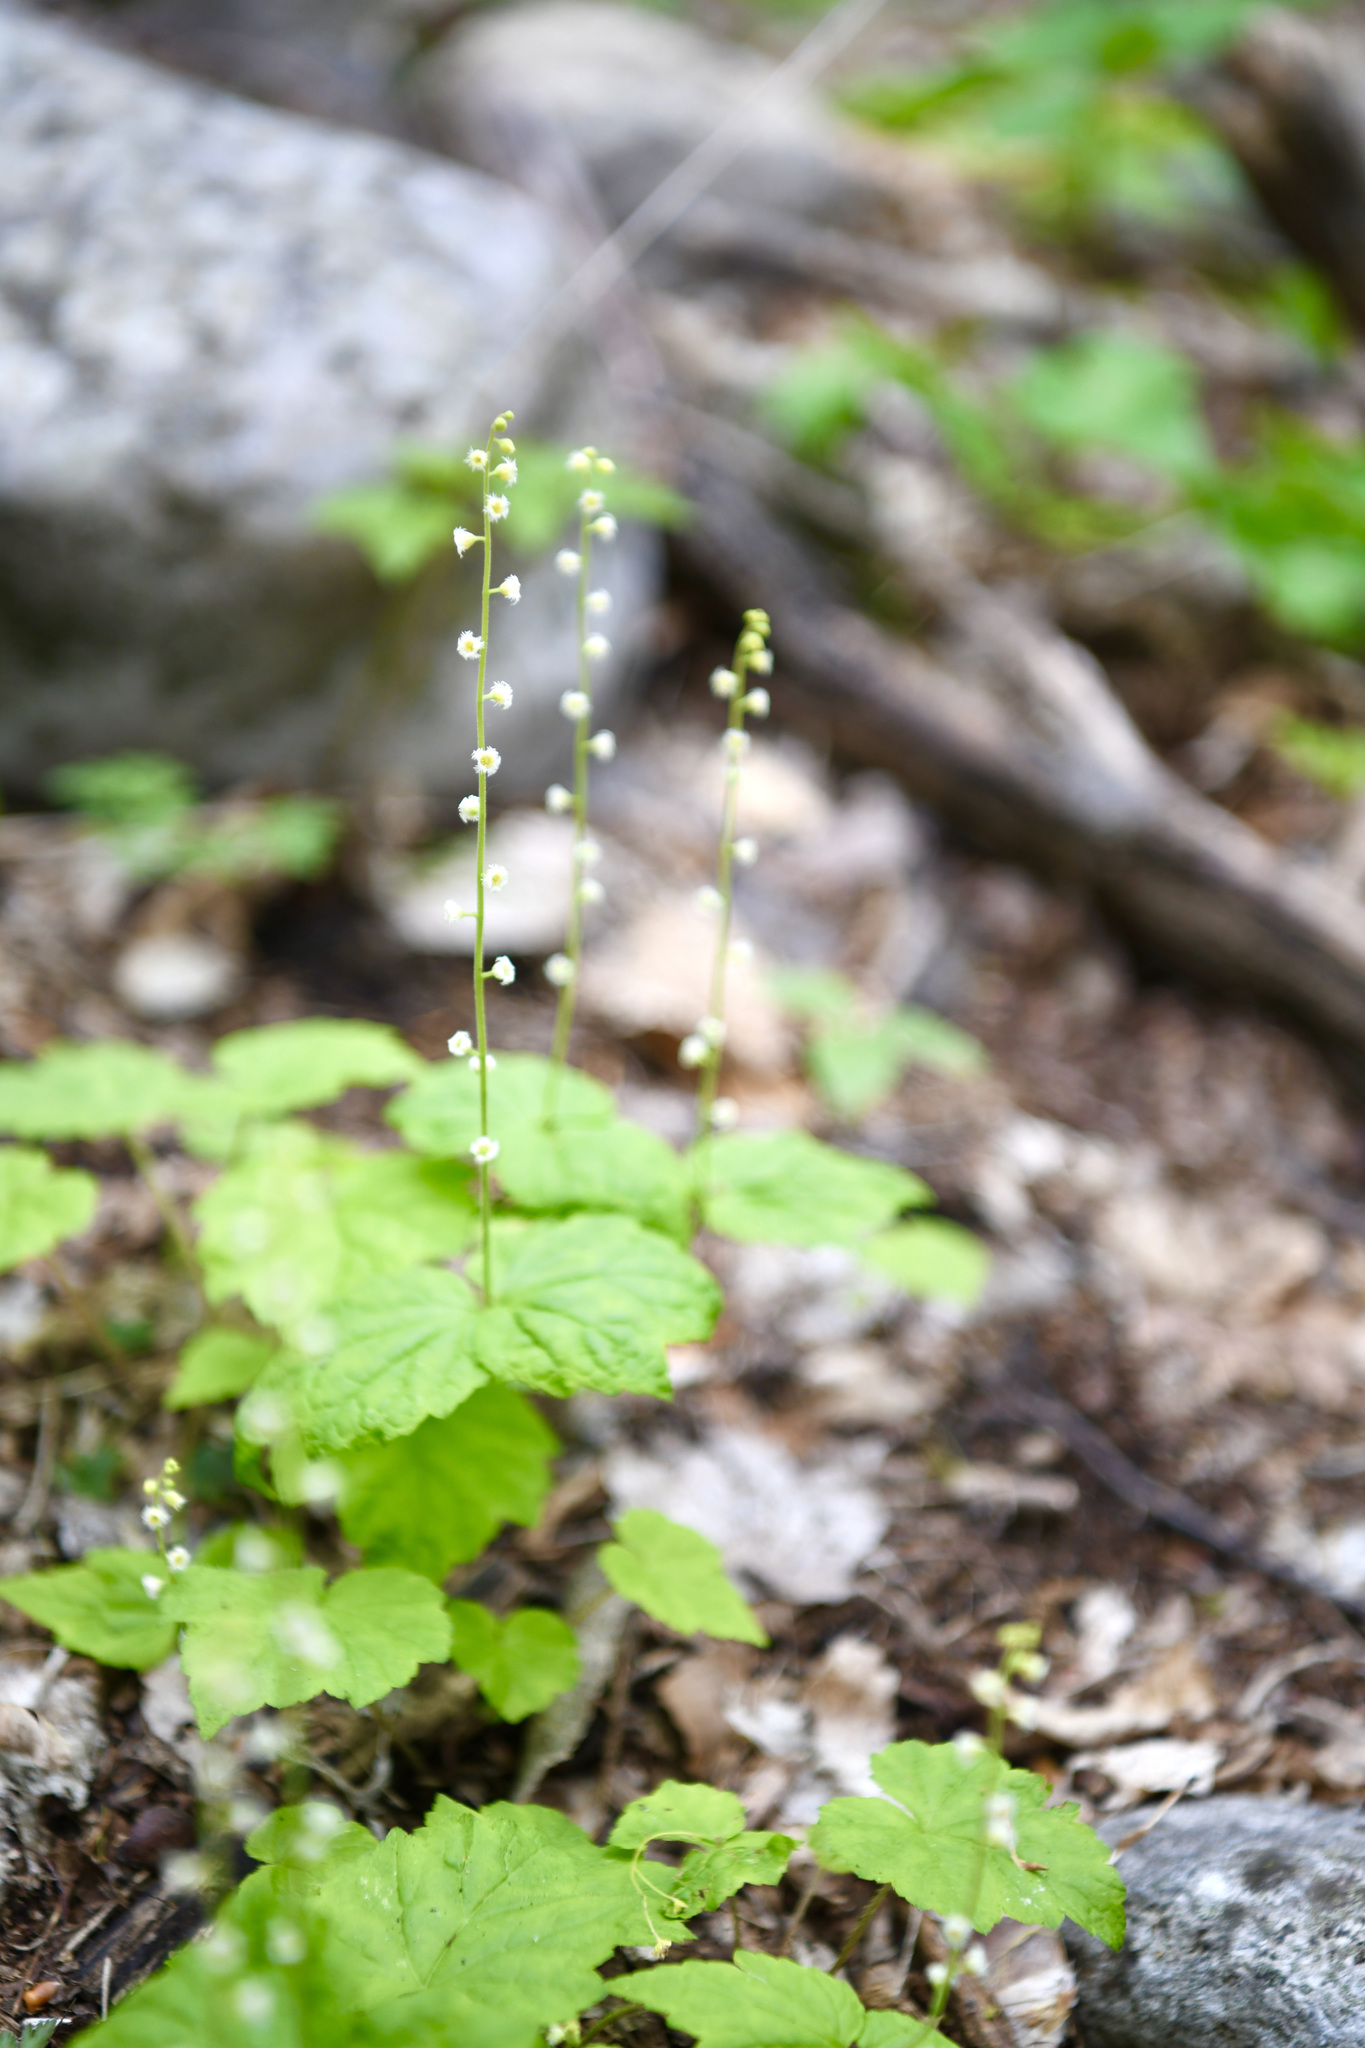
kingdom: Plantae
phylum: Tracheophyta
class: Magnoliopsida
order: Saxifragales
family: Saxifragaceae
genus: Mitella
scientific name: Mitella diphylla
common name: Coolwort
